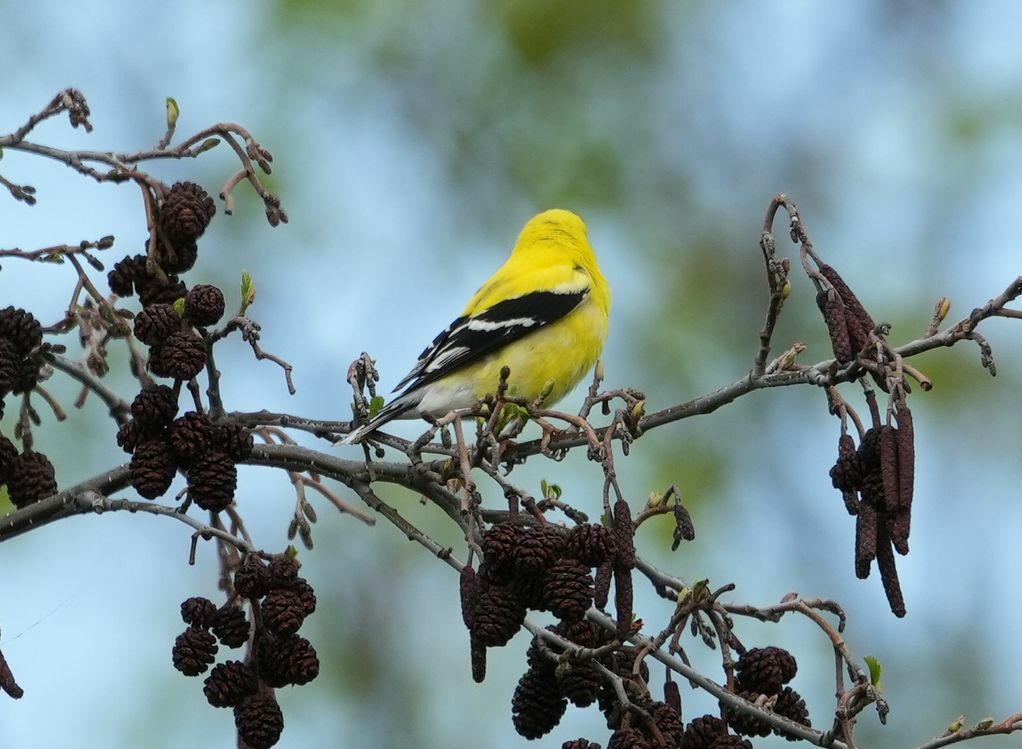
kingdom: Animalia
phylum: Chordata
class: Aves
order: Passeriformes
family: Fringillidae
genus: Spinus
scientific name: Spinus tristis
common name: American goldfinch
